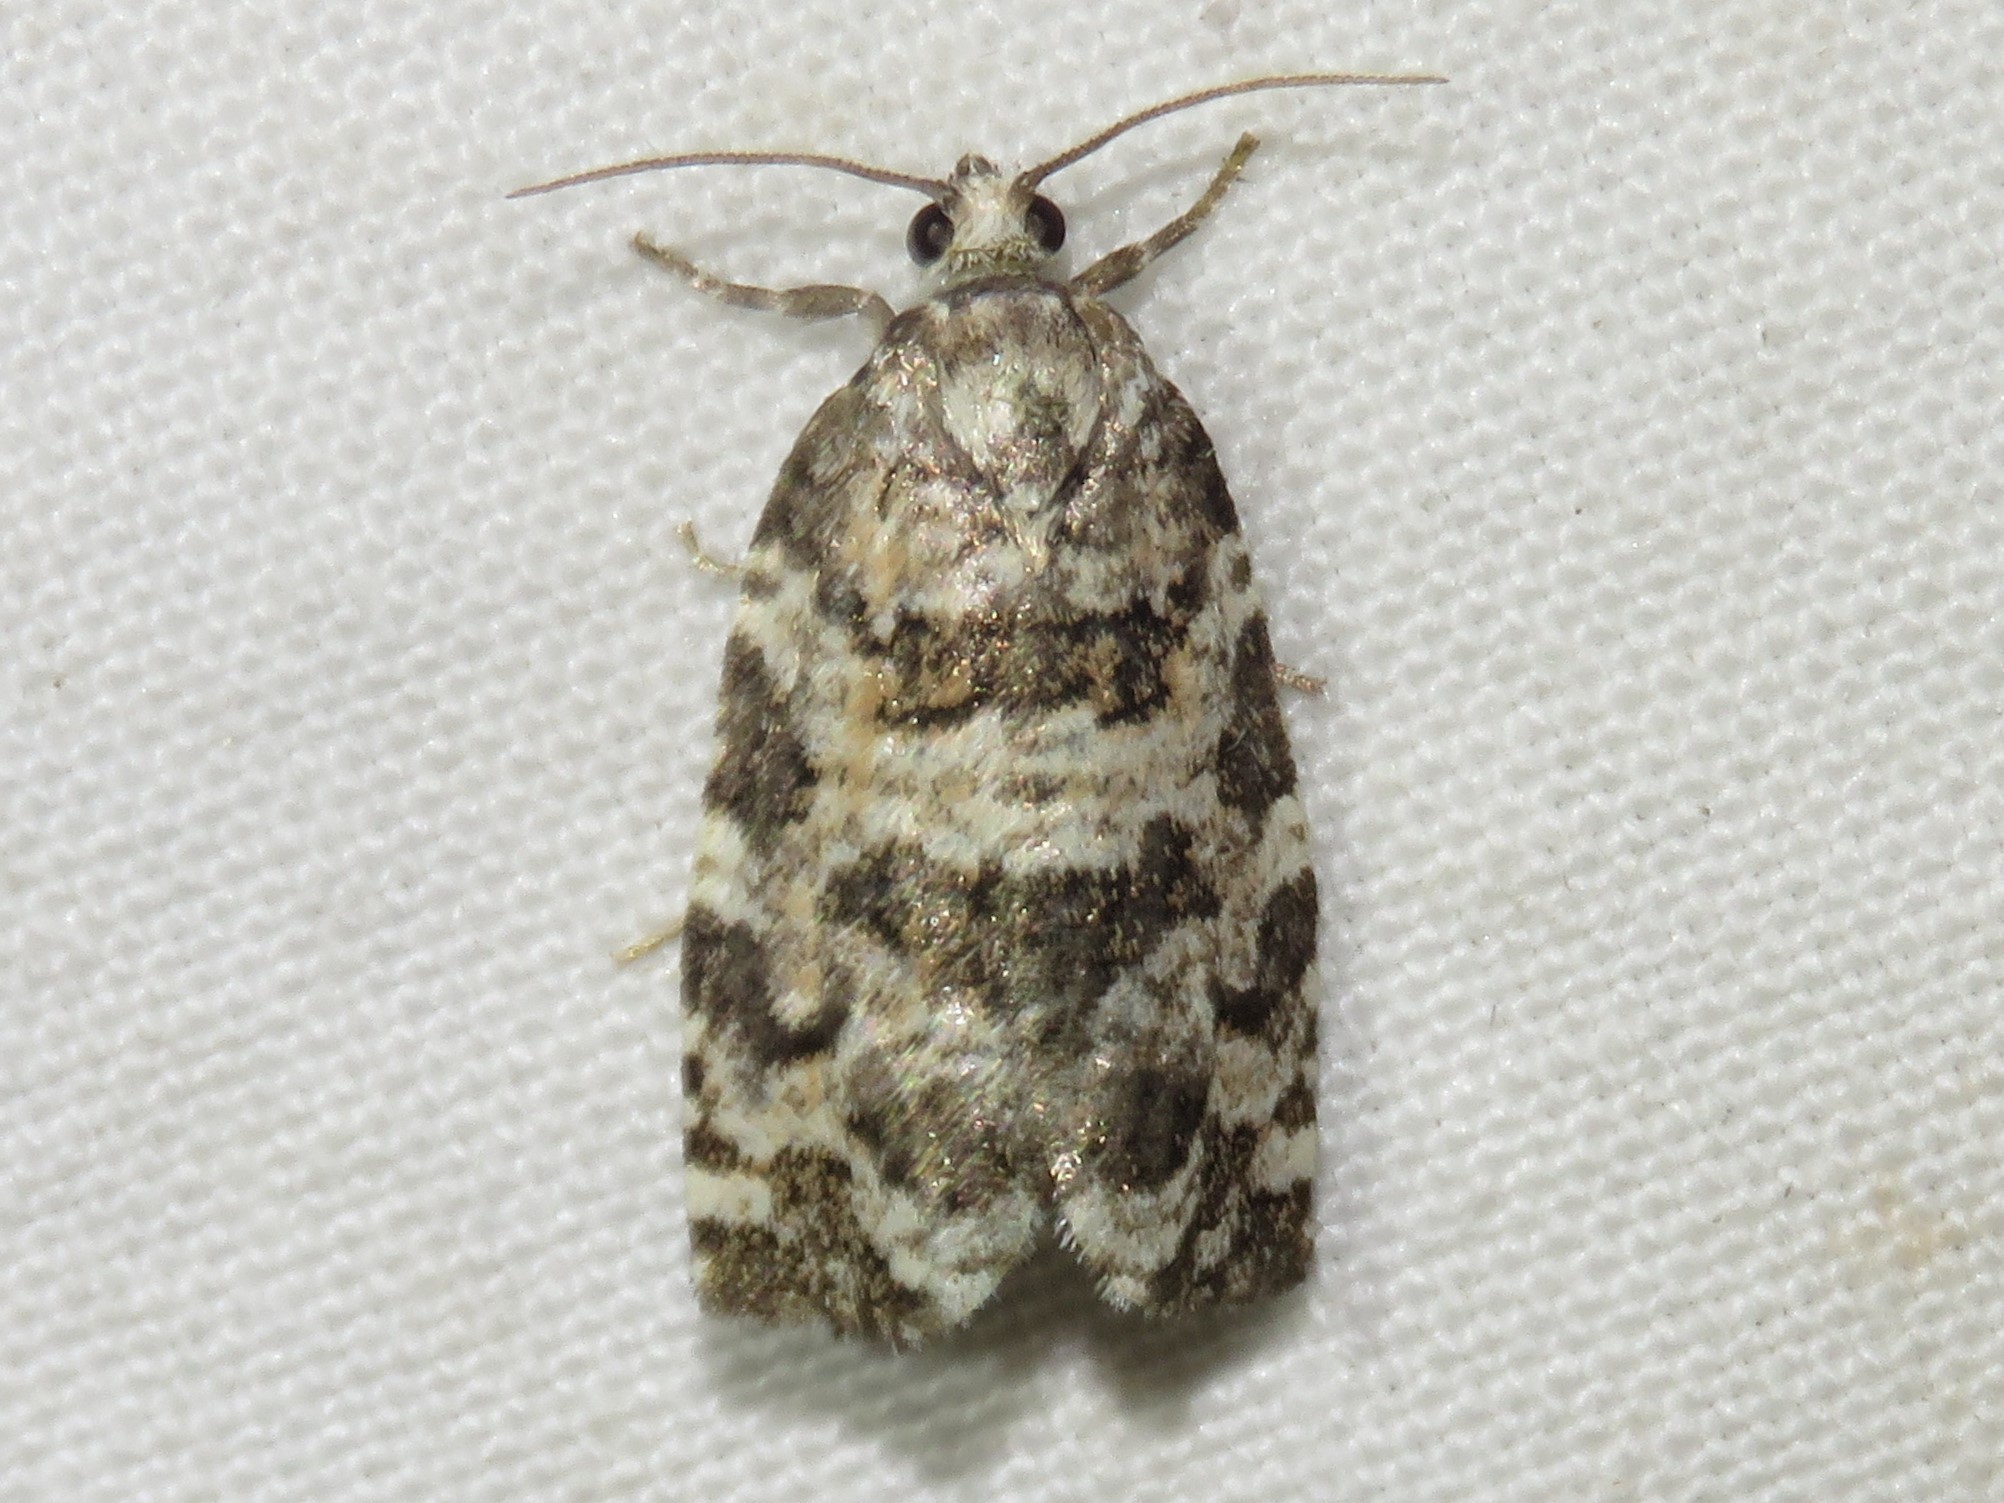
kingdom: Animalia
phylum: Arthropoda
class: Insecta
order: Lepidoptera
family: Tortricidae
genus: Archips
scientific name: Archips packardiana
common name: Spring spruce needle moth
